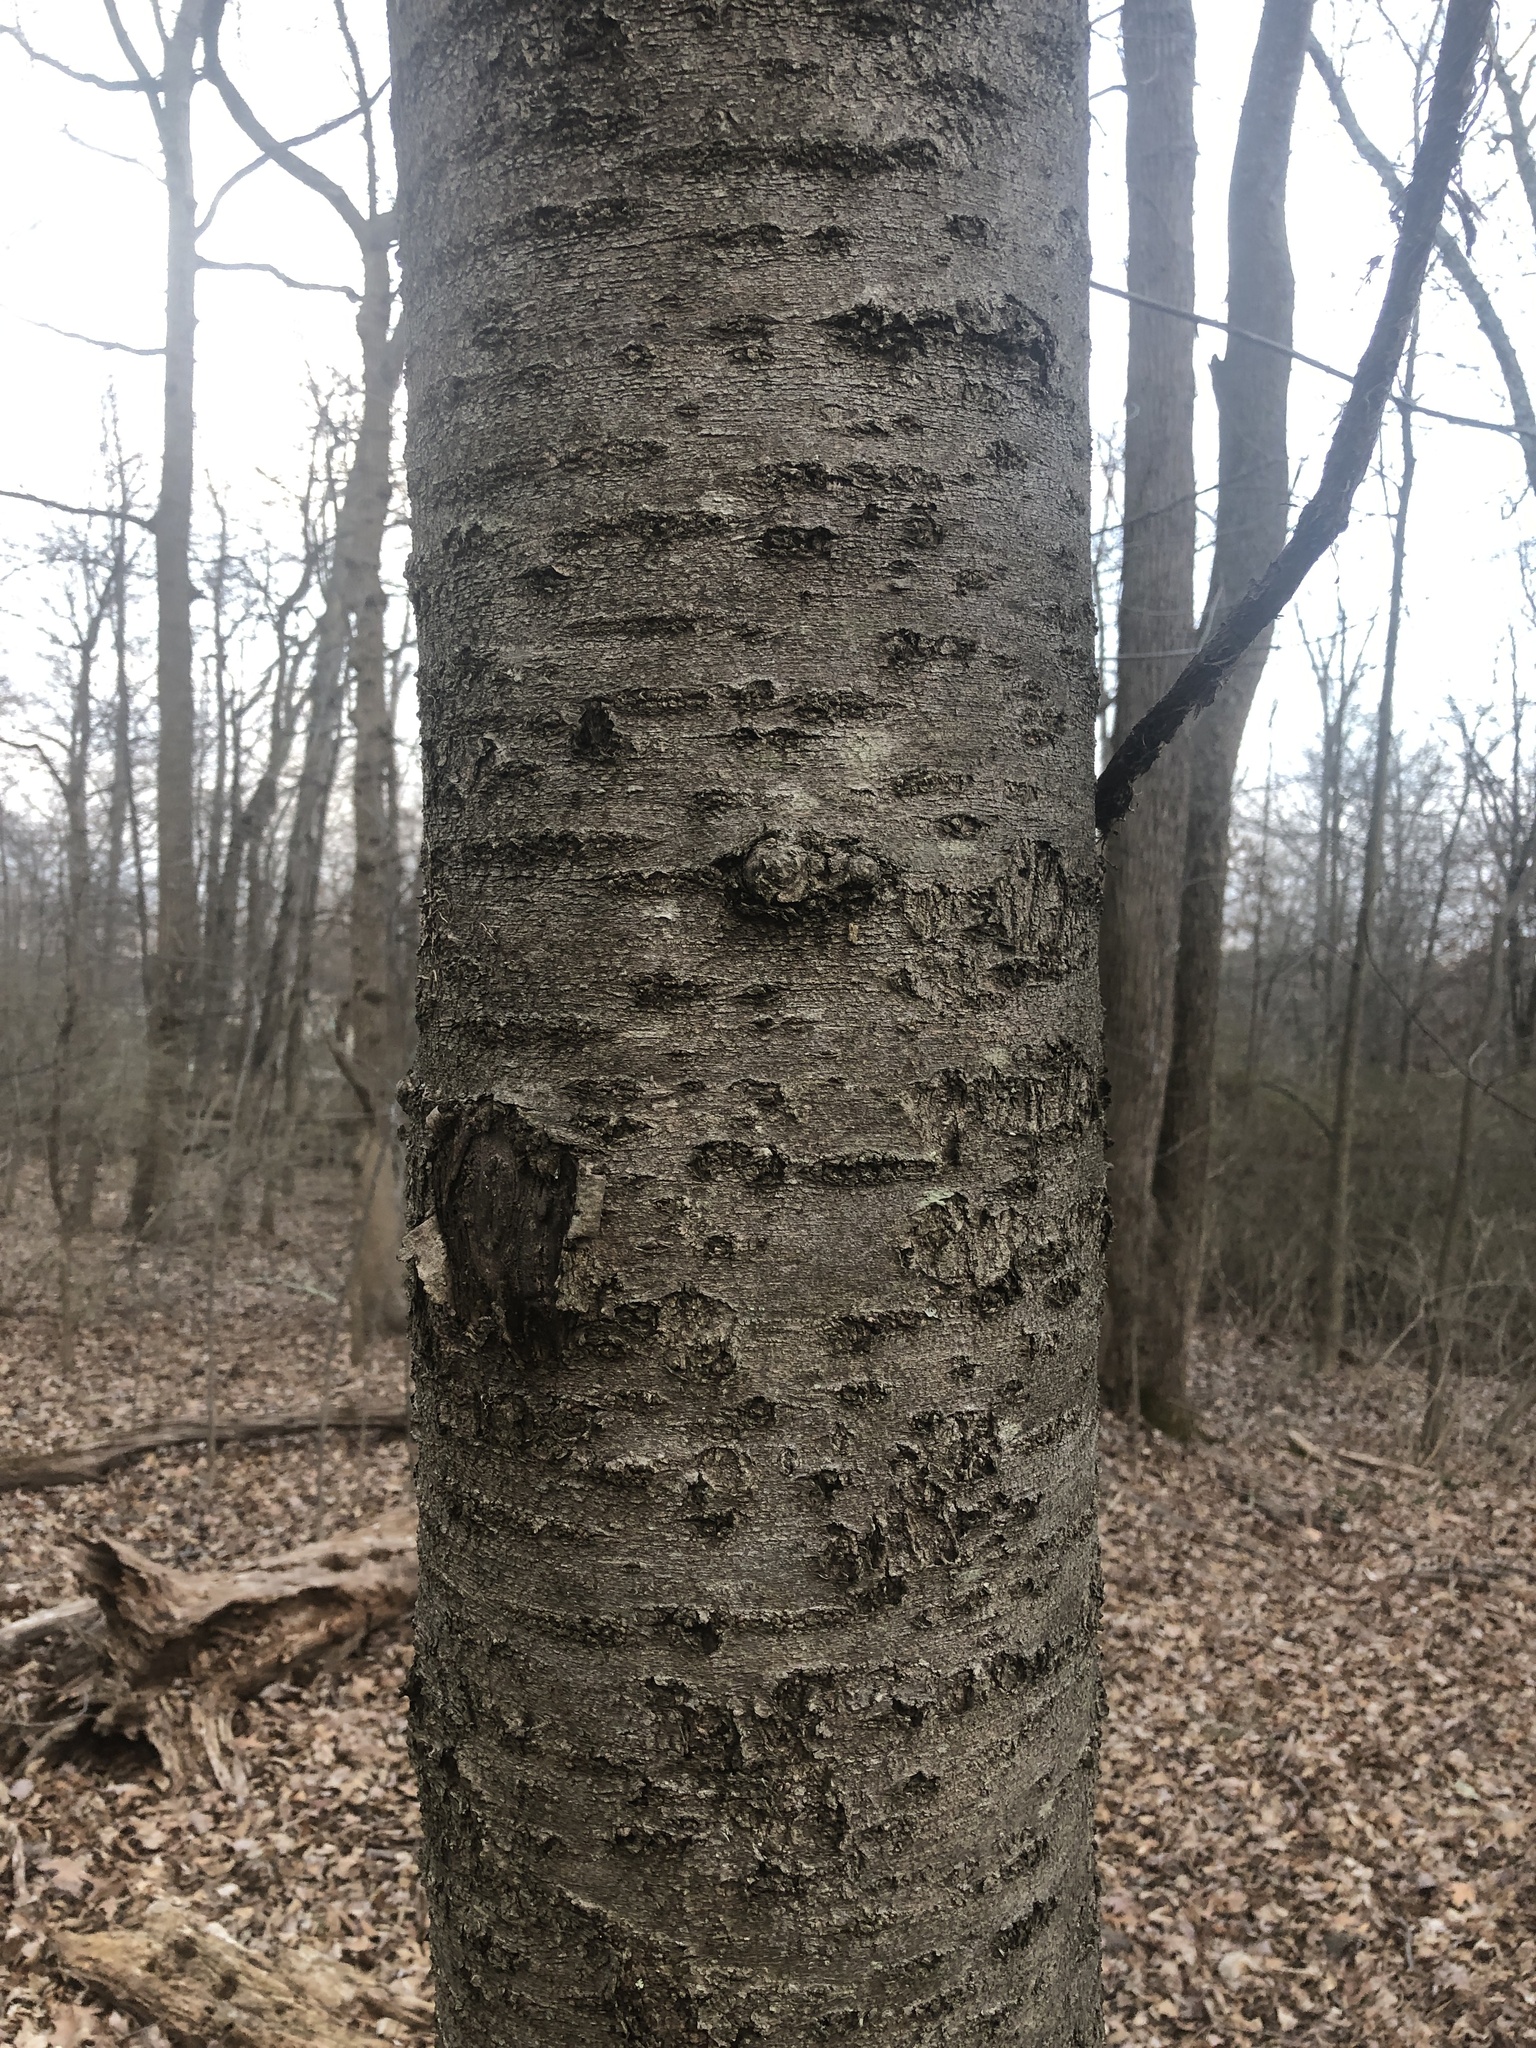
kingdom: Plantae
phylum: Tracheophyta
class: Magnoliopsida
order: Rosales
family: Rosaceae
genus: Prunus
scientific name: Prunus avium
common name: Sweet cherry
